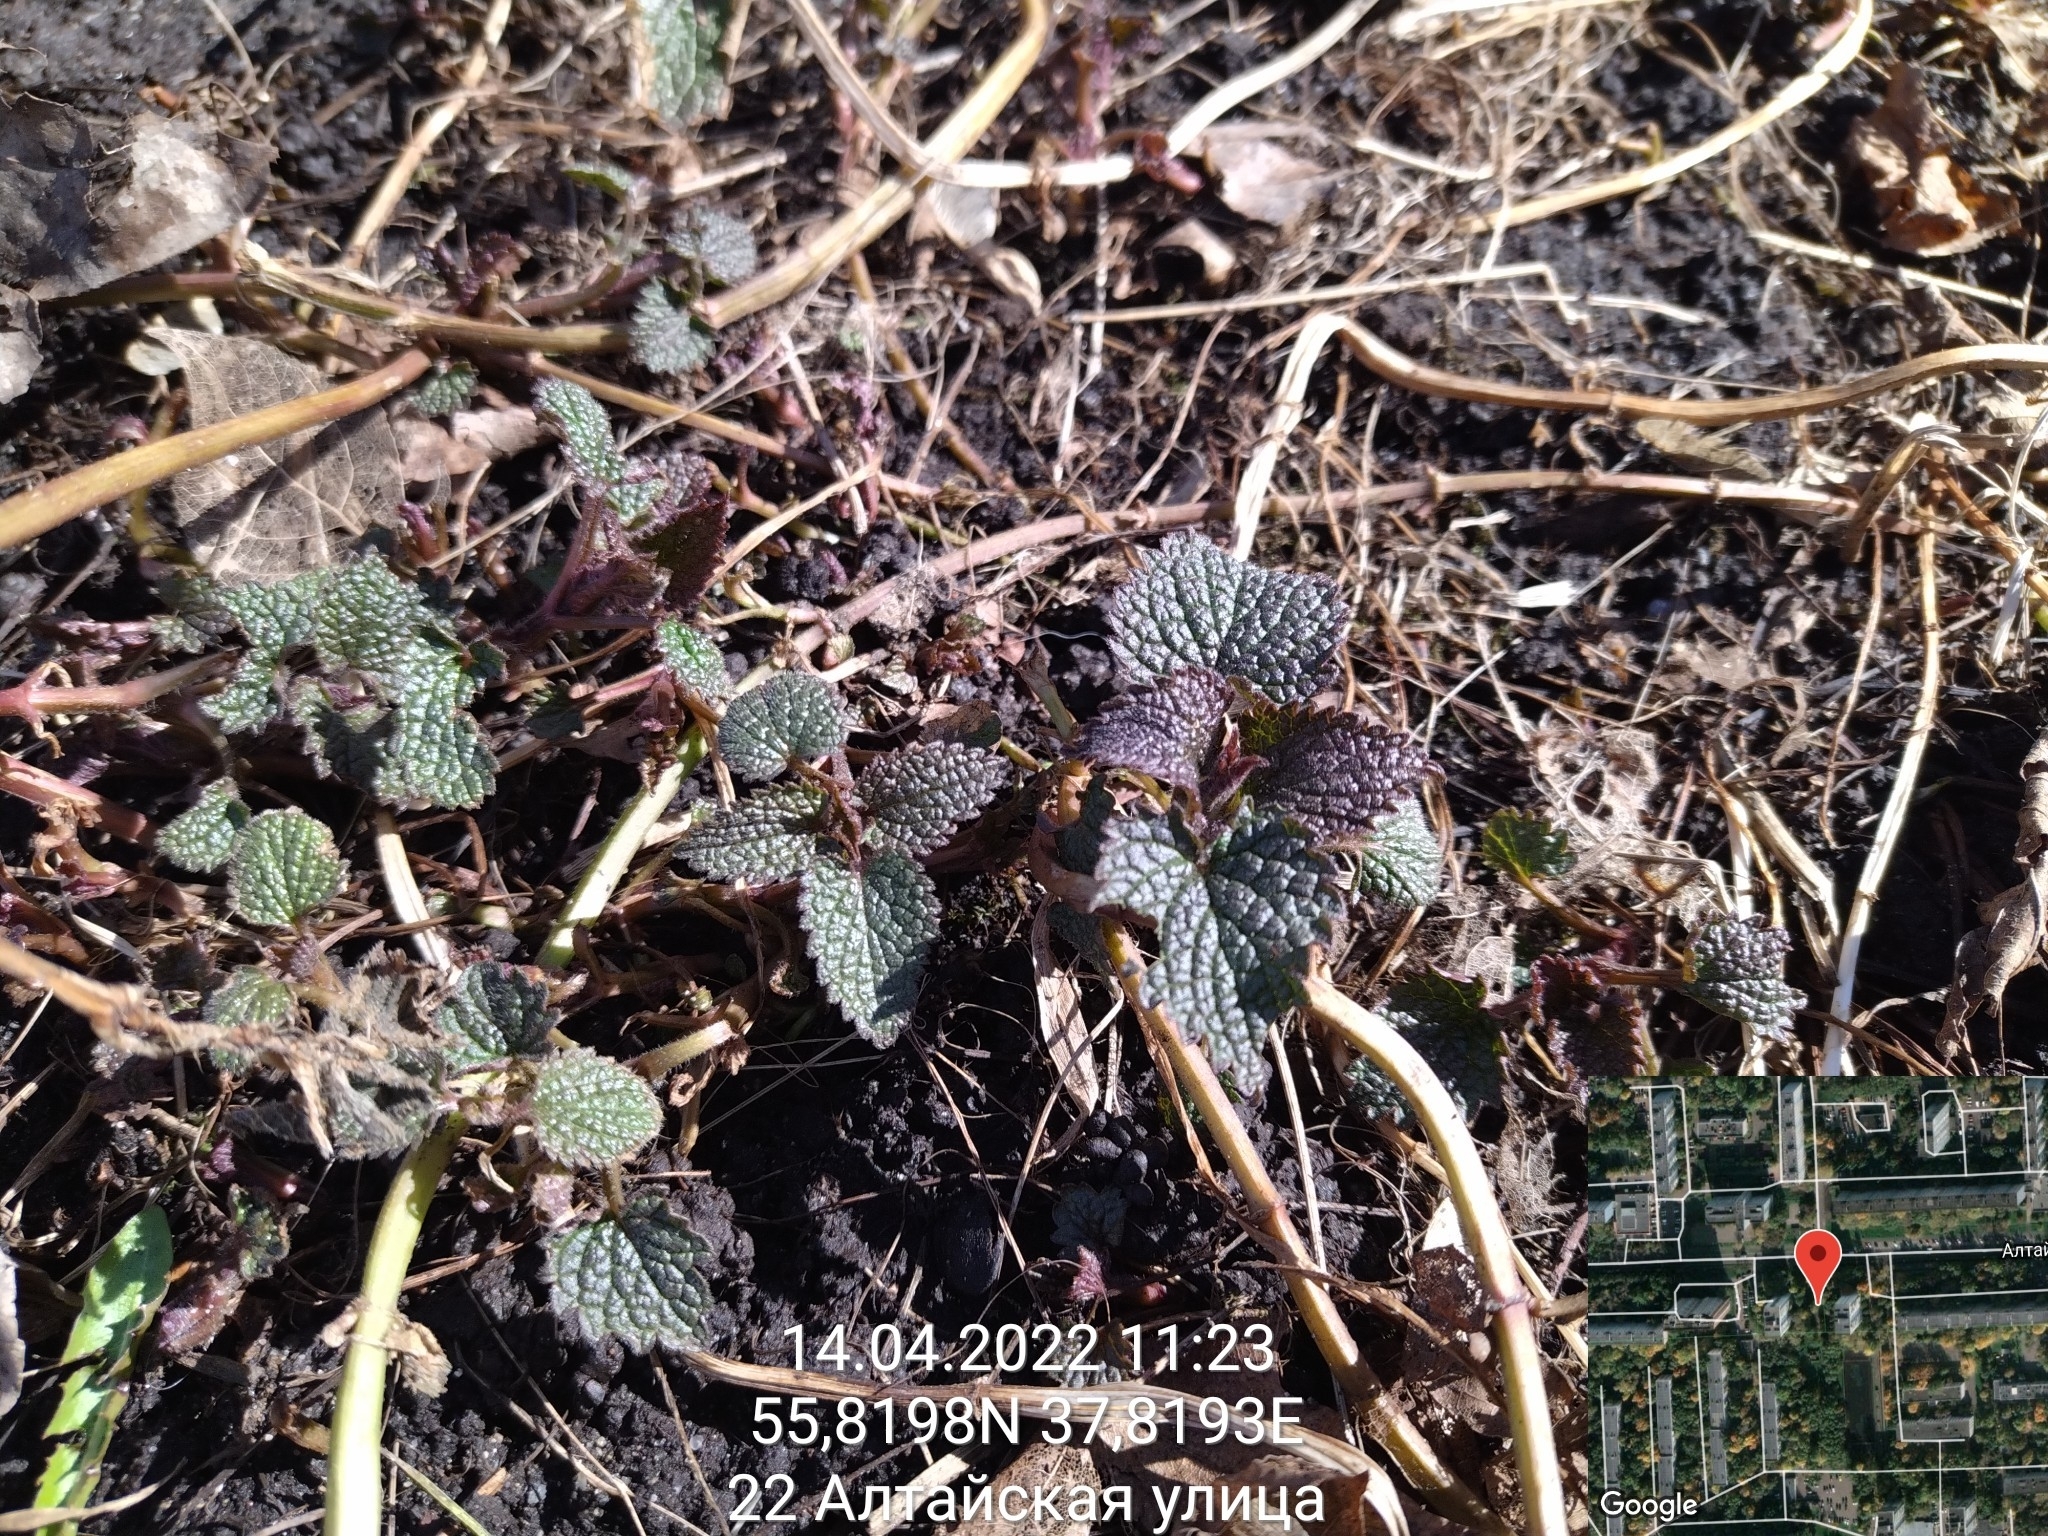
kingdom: Plantae
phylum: Tracheophyta
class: Magnoliopsida
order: Lamiales
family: Lamiaceae
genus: Lamium
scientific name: Lamium album
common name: White dead-nettle
